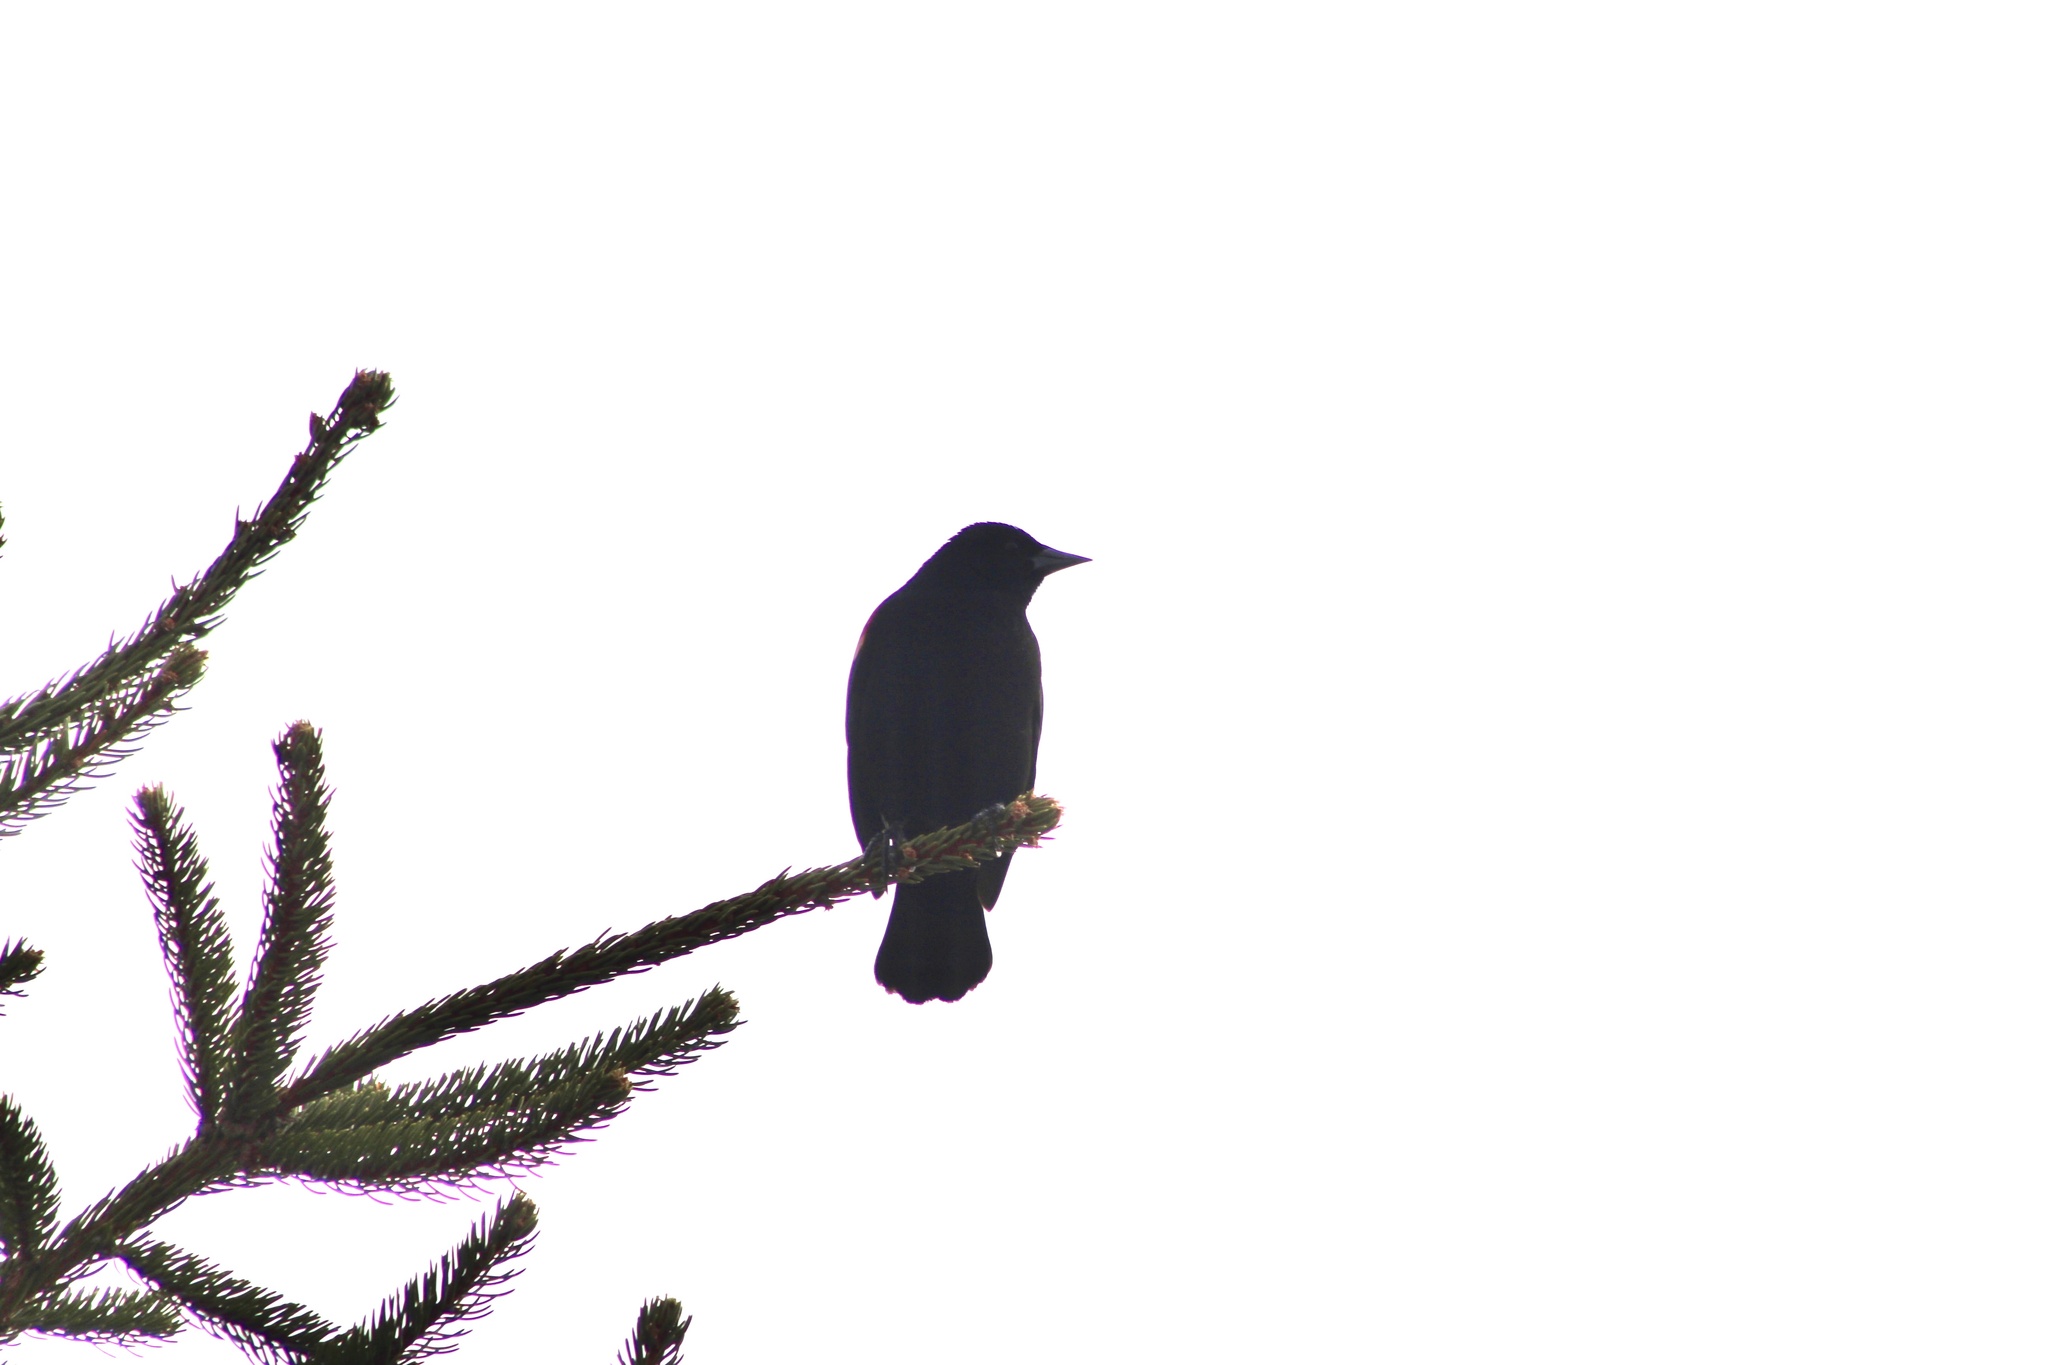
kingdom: Animalia
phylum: Chordata
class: Aves
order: Passeriformes
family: Icteridae
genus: Agelaius
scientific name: Agelaius phoeniceus
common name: Red-winged blackbird
